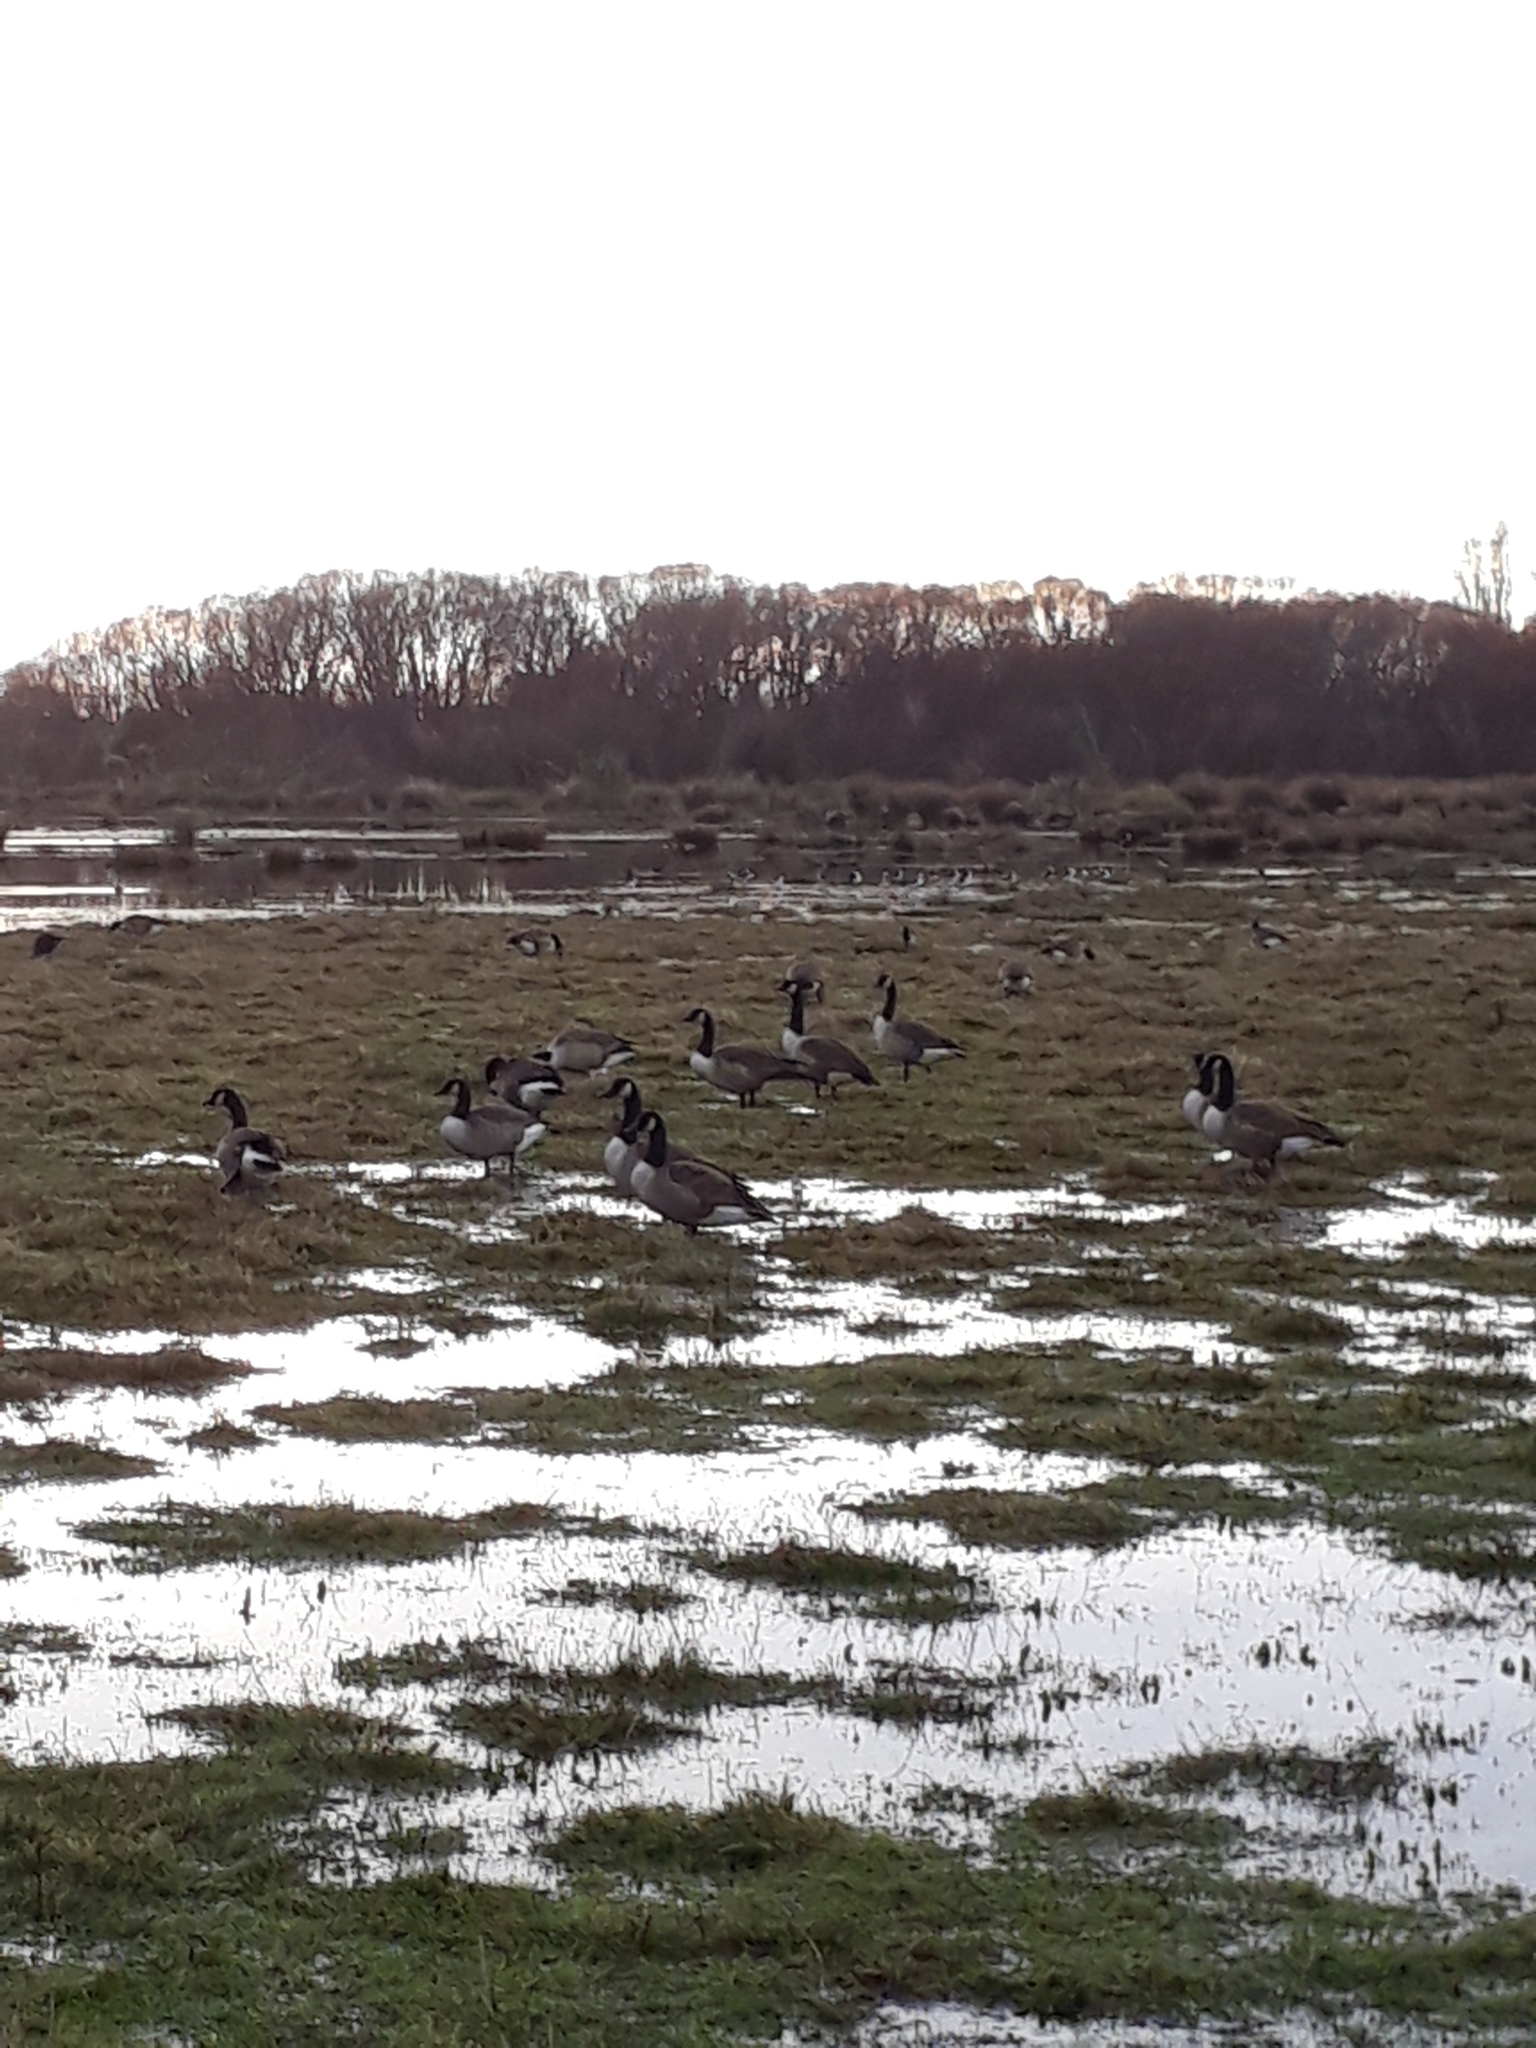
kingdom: Animalia
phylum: Chordata
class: Aves
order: Anseriformes
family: Anatidae
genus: Branta
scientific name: Branta canadensis
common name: Canada goose
